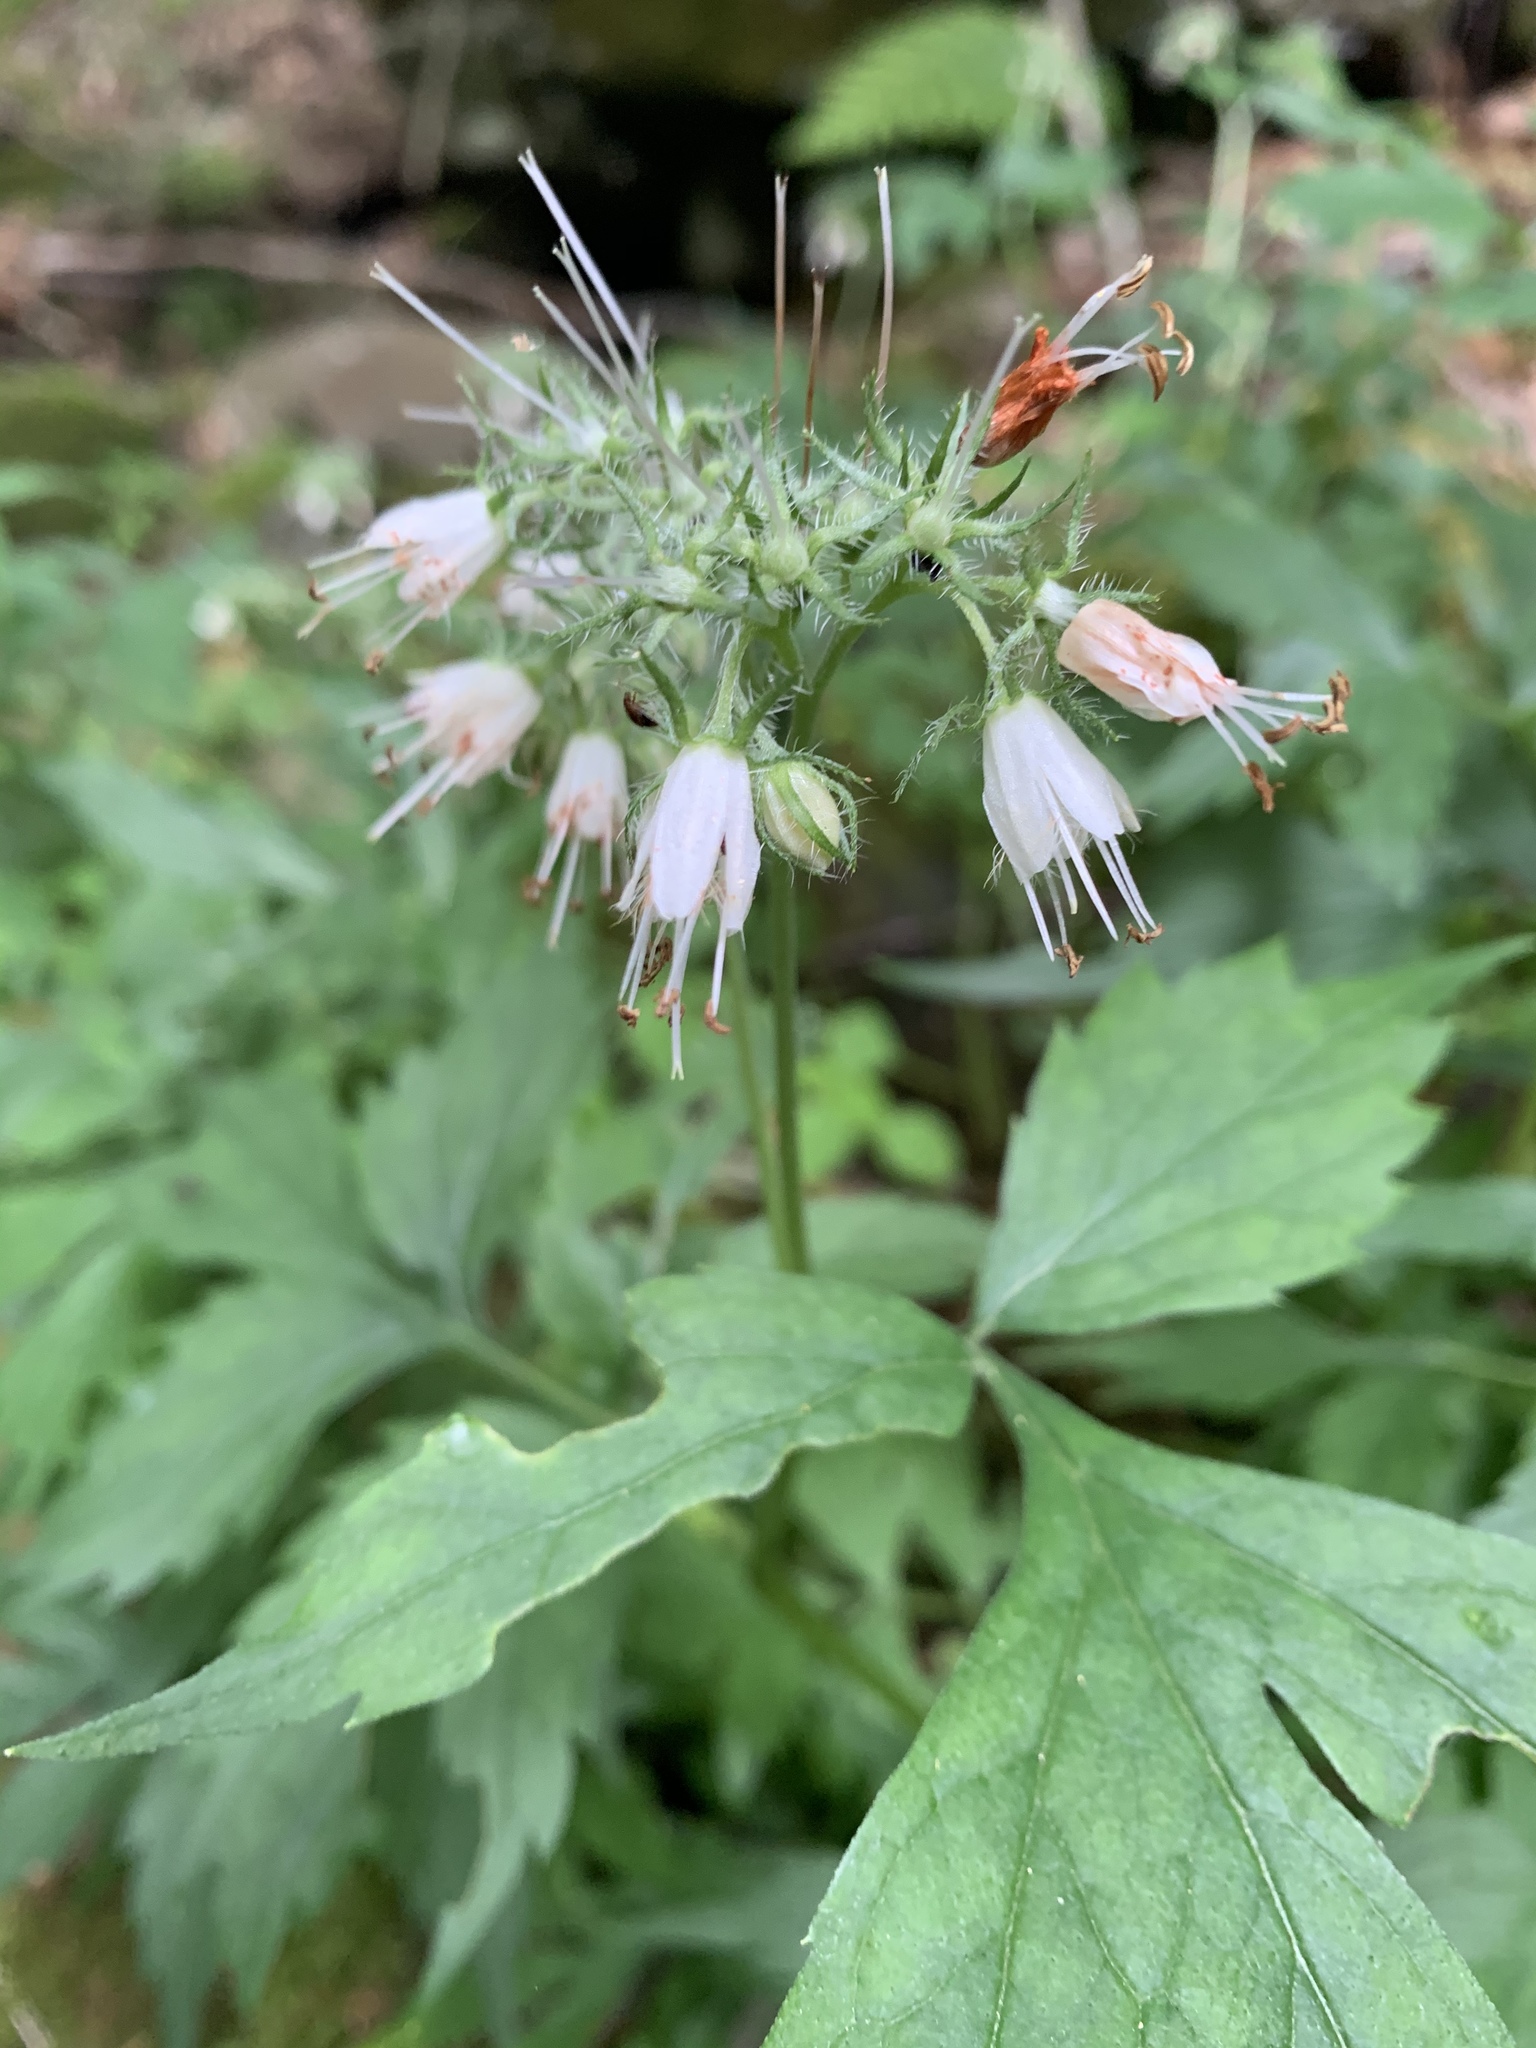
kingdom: Plantae
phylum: Tracheophyta
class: Magnoliopsida
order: Boraginales
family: Hydrophyllaceae
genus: Hydrophyllum
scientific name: Hydrophyllum virginianum
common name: Virginia waterleaf
